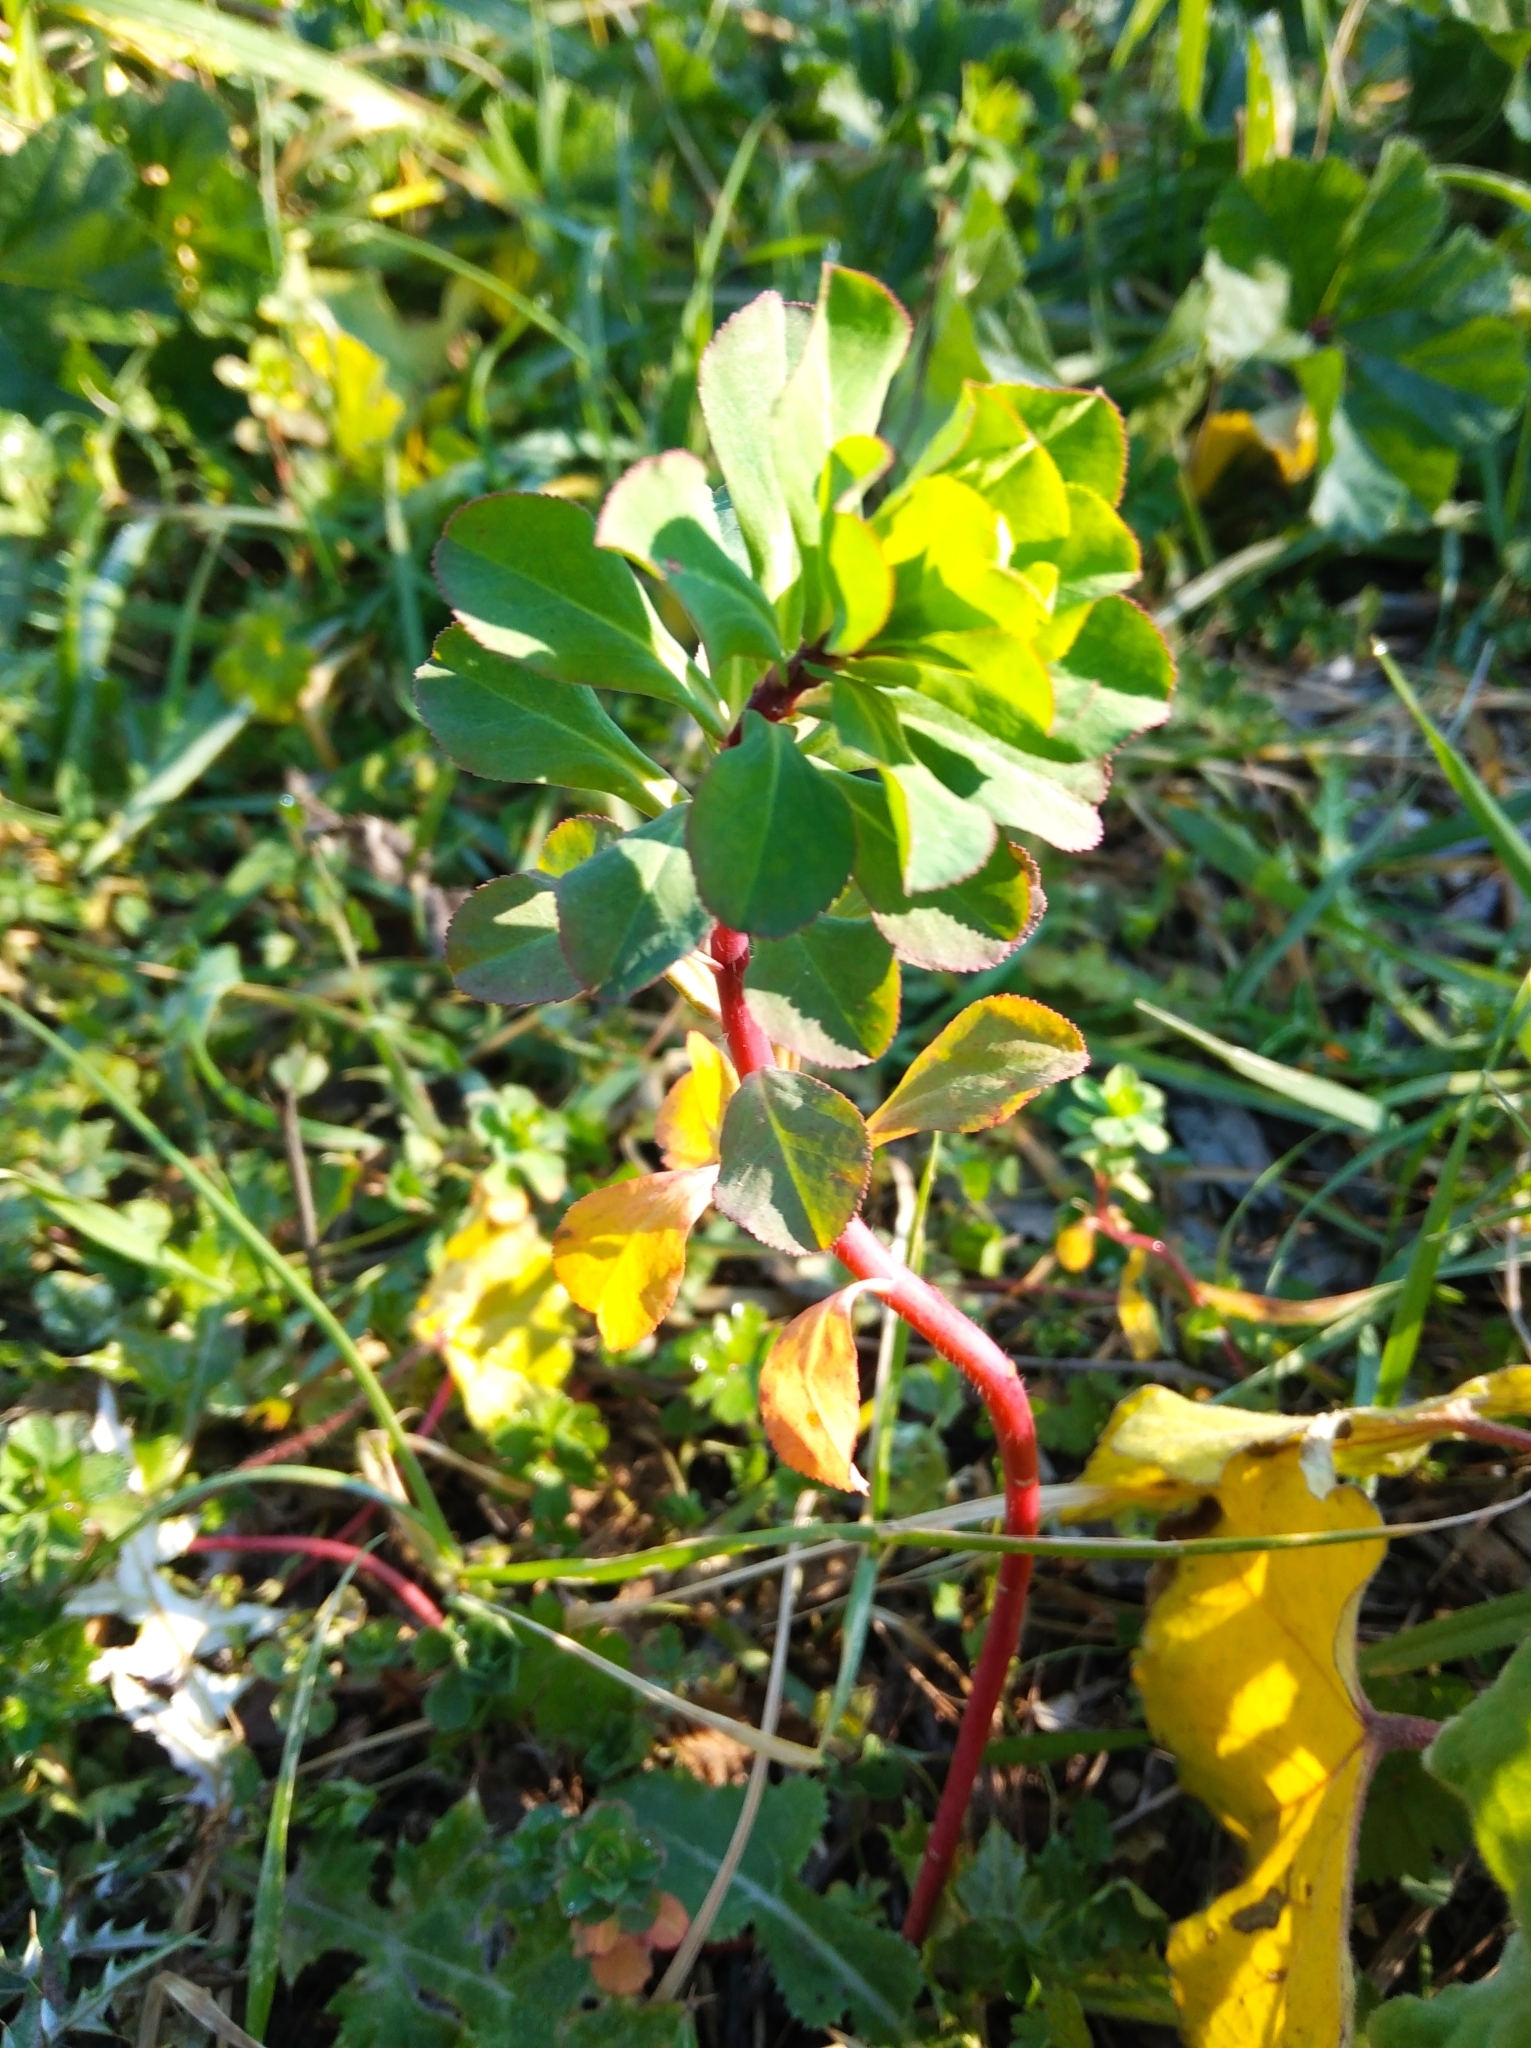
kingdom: Plantae
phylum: Tracheophyta
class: Magnoliopsida
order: Malpighiales
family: Euphorbiaceae
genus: Euphorbia
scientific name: Euphorbia amygdaloides
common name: Wood spurge
